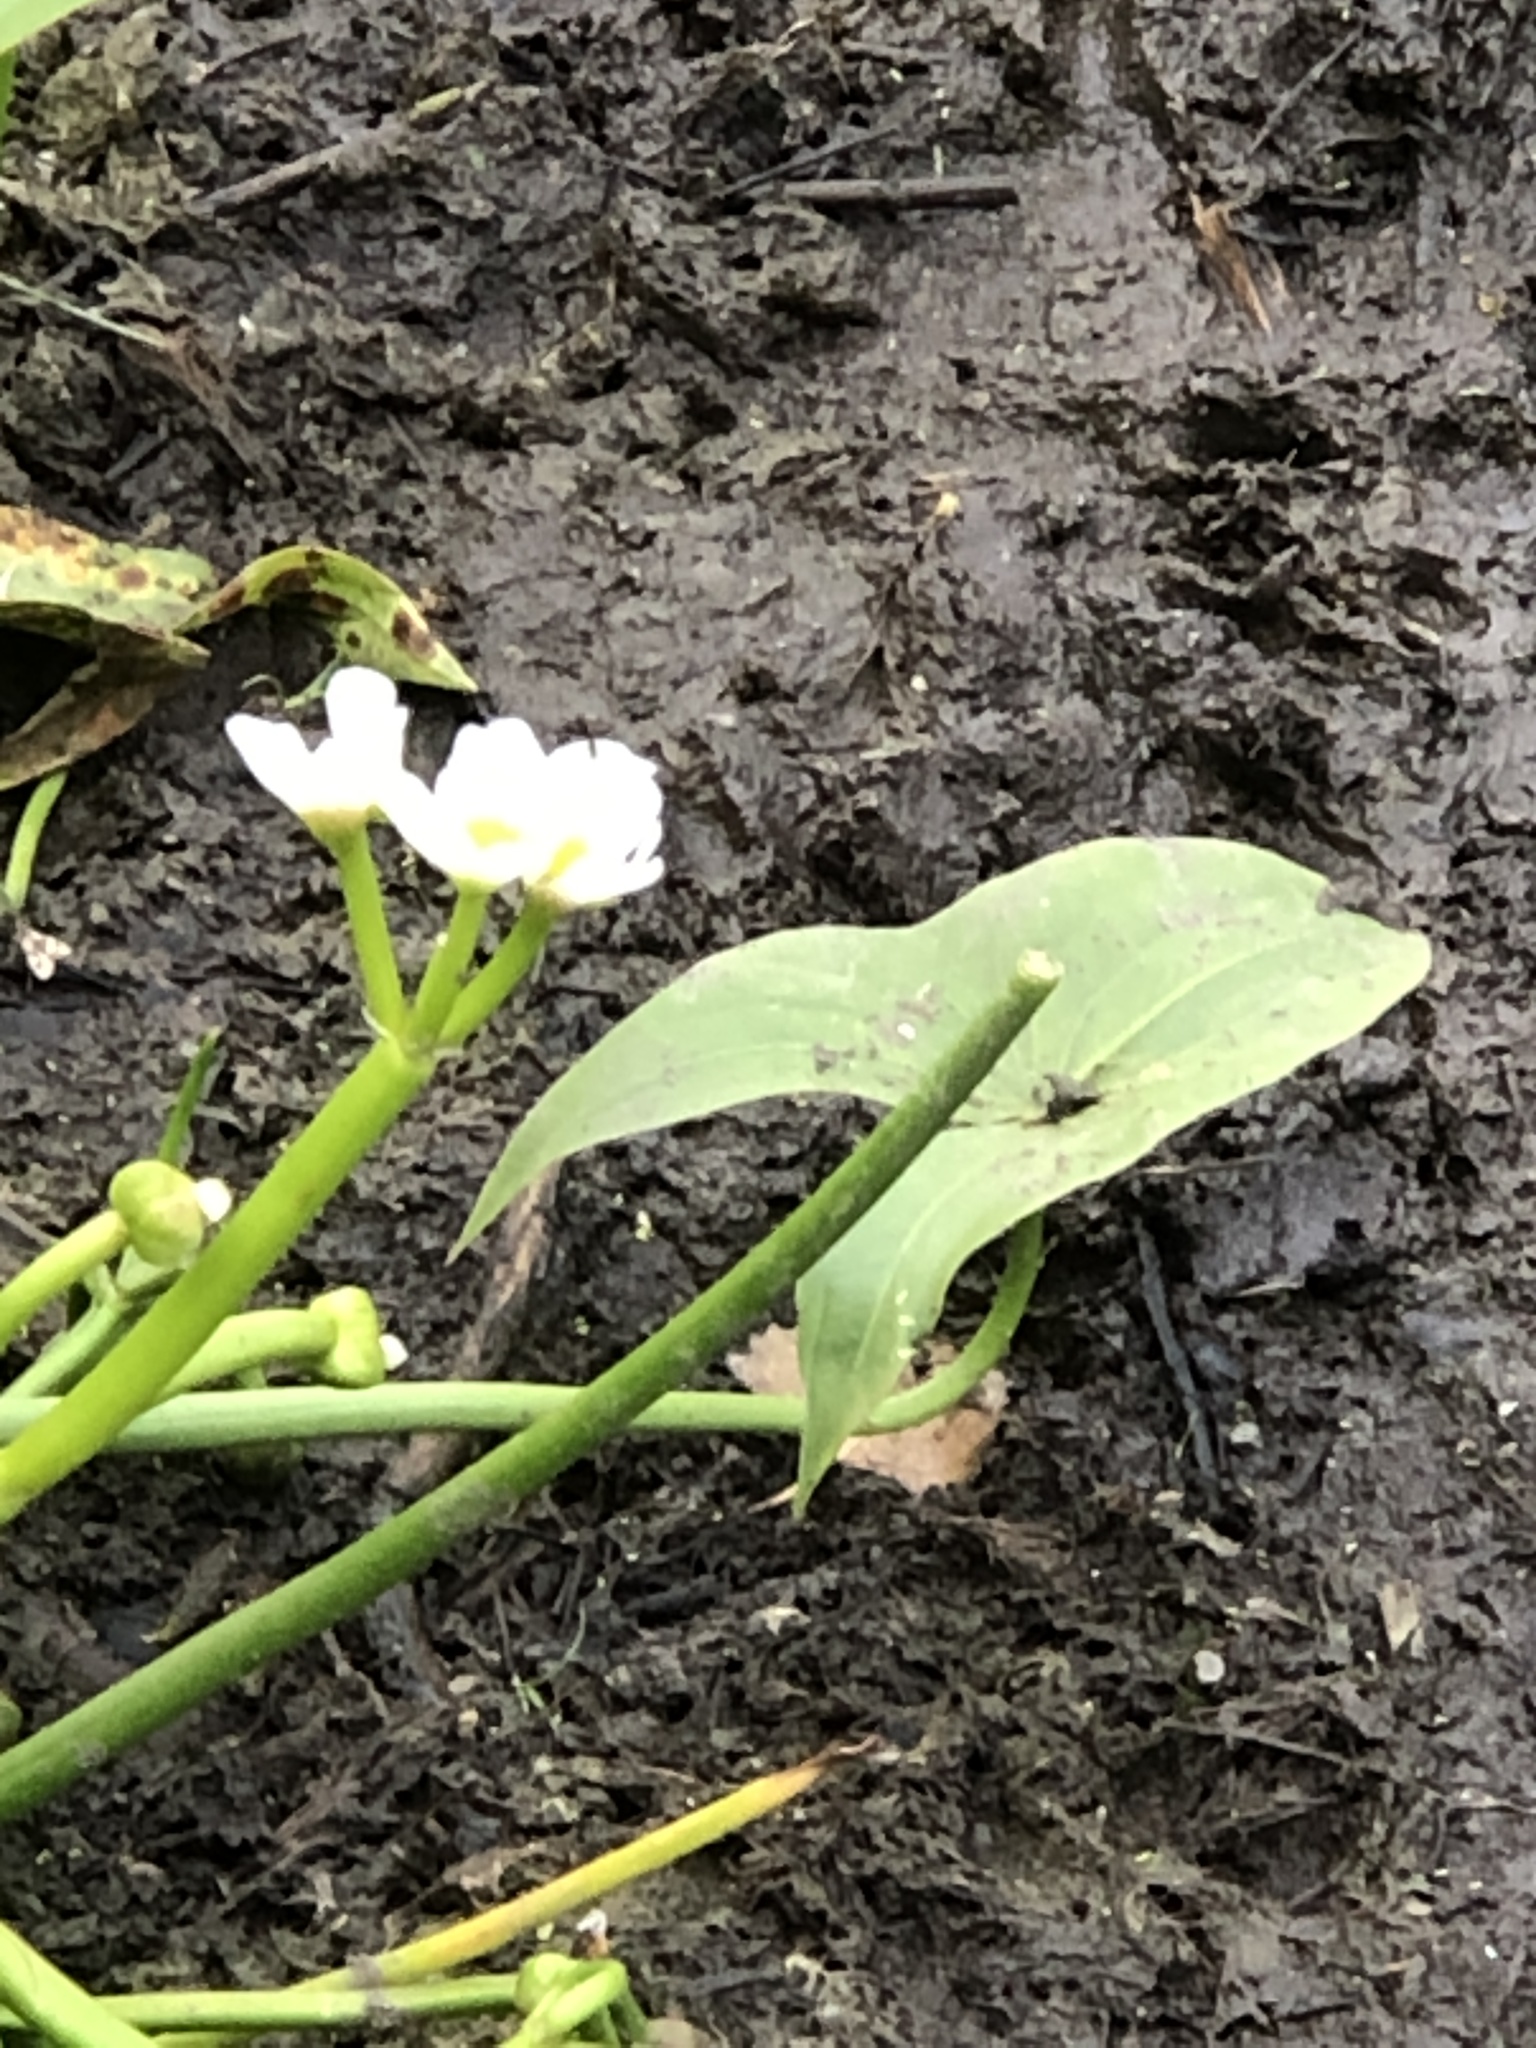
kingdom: Plantae
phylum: Tracheophyta
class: Liliopsida
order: Alismatales
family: Alismataceae
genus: Sagittaria
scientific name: Sagittaria calycina
